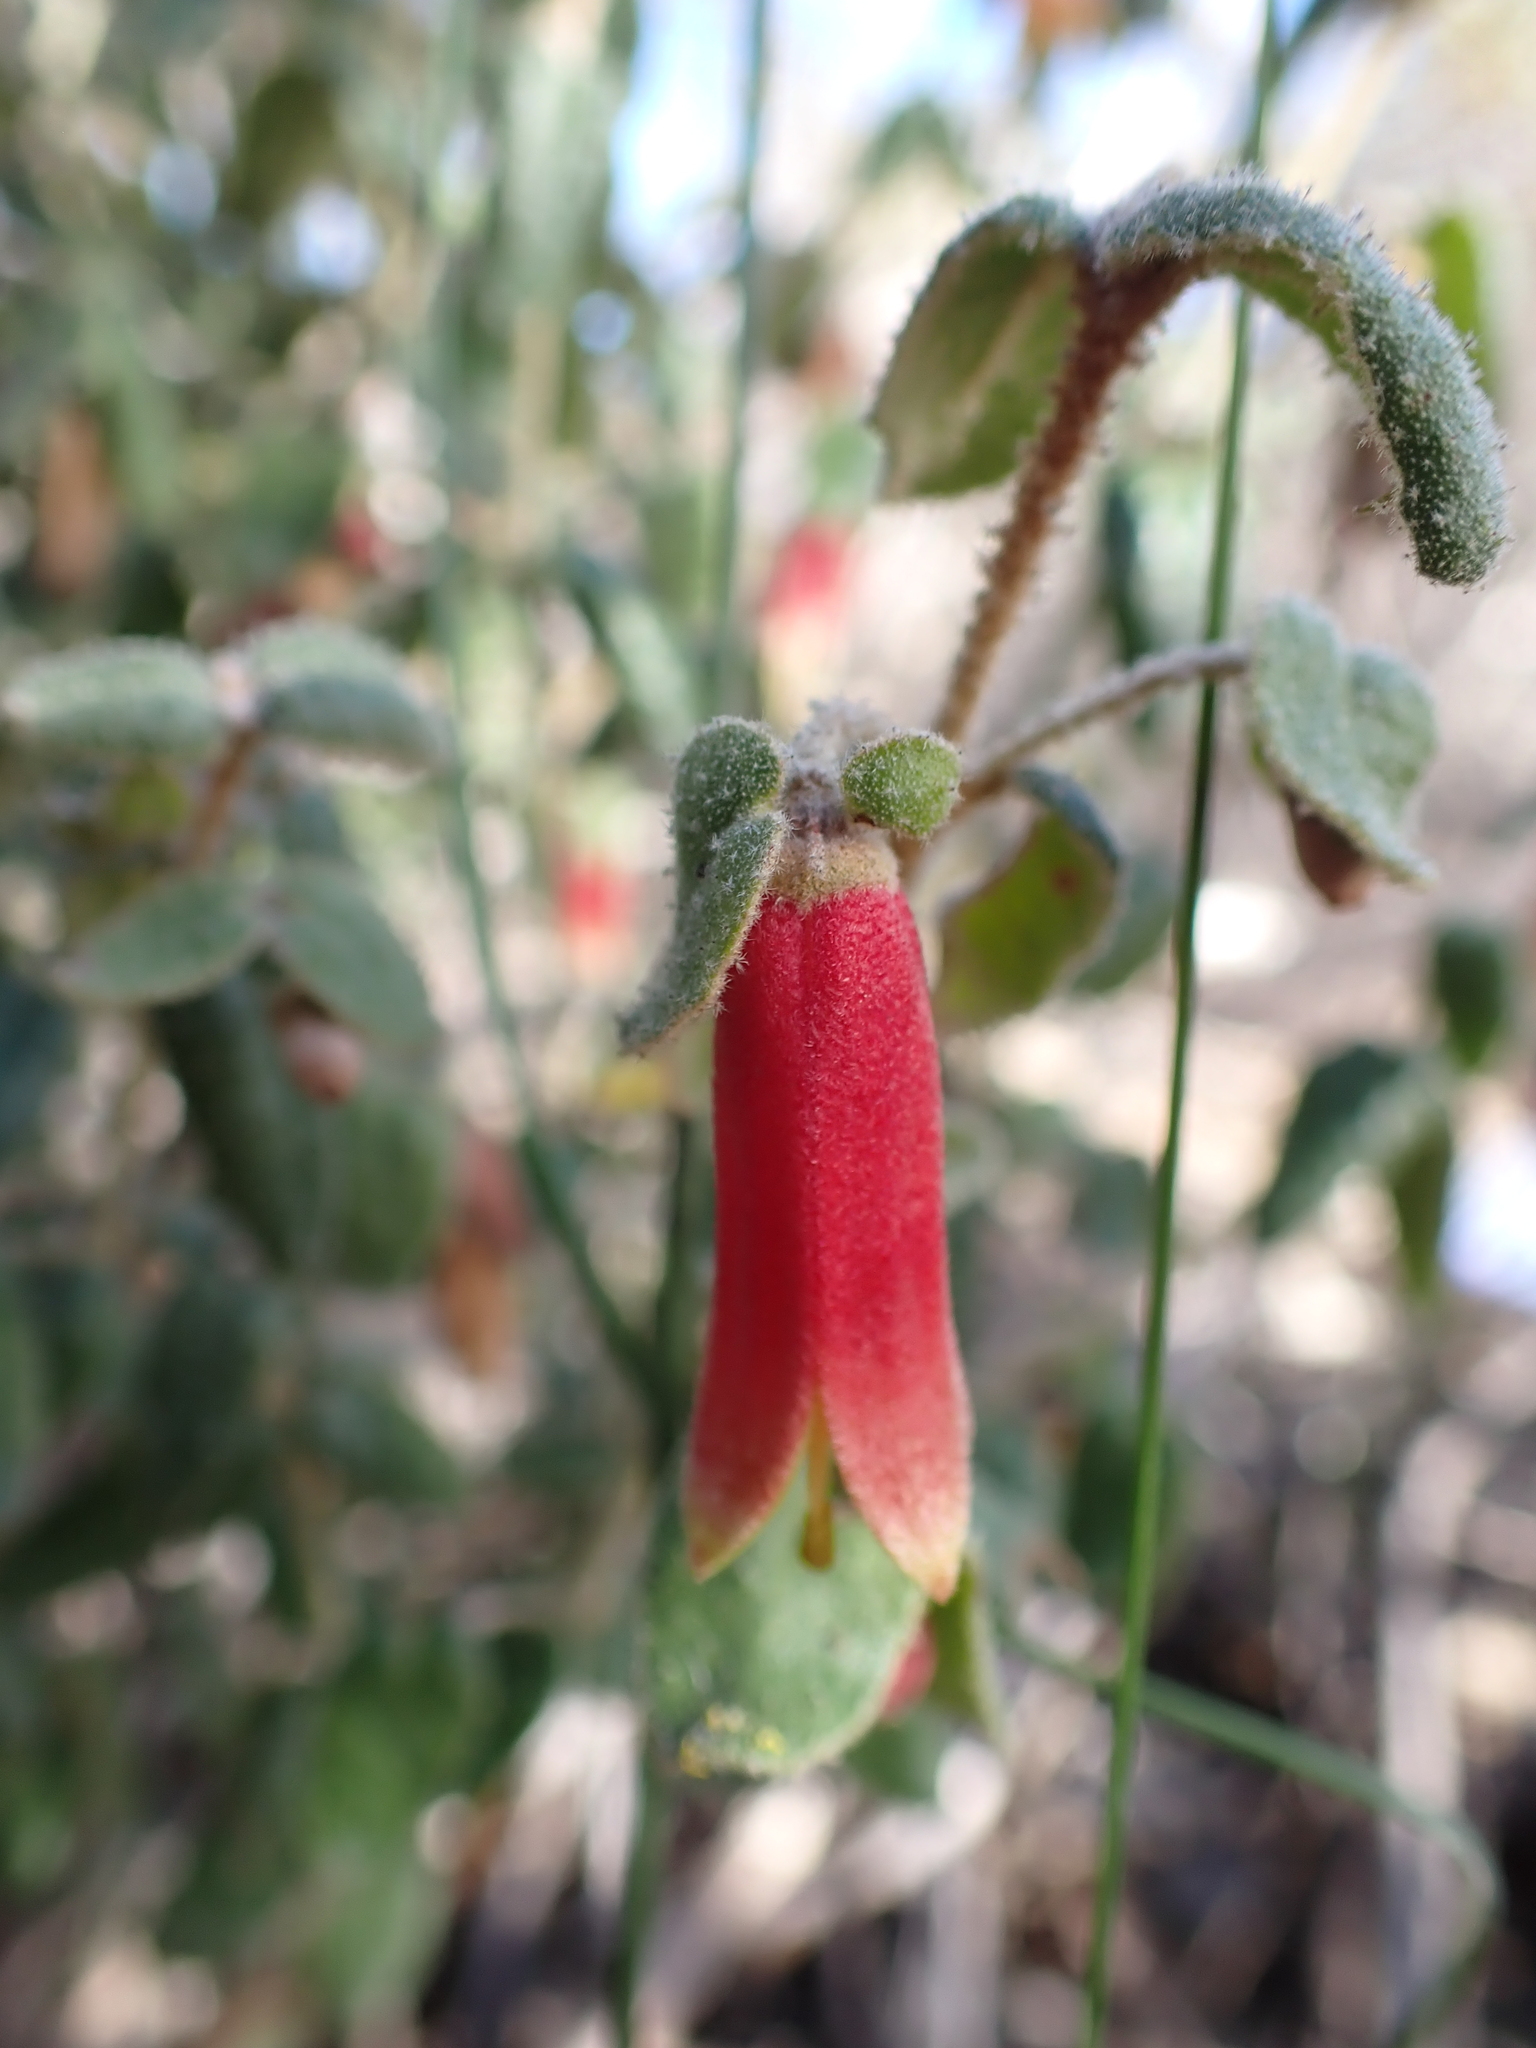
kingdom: Plantae
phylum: Tracheophyta
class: Magnoliopsida
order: Sapindales
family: Rutaceae
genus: Correa
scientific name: Correa reflexa
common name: Common correa
